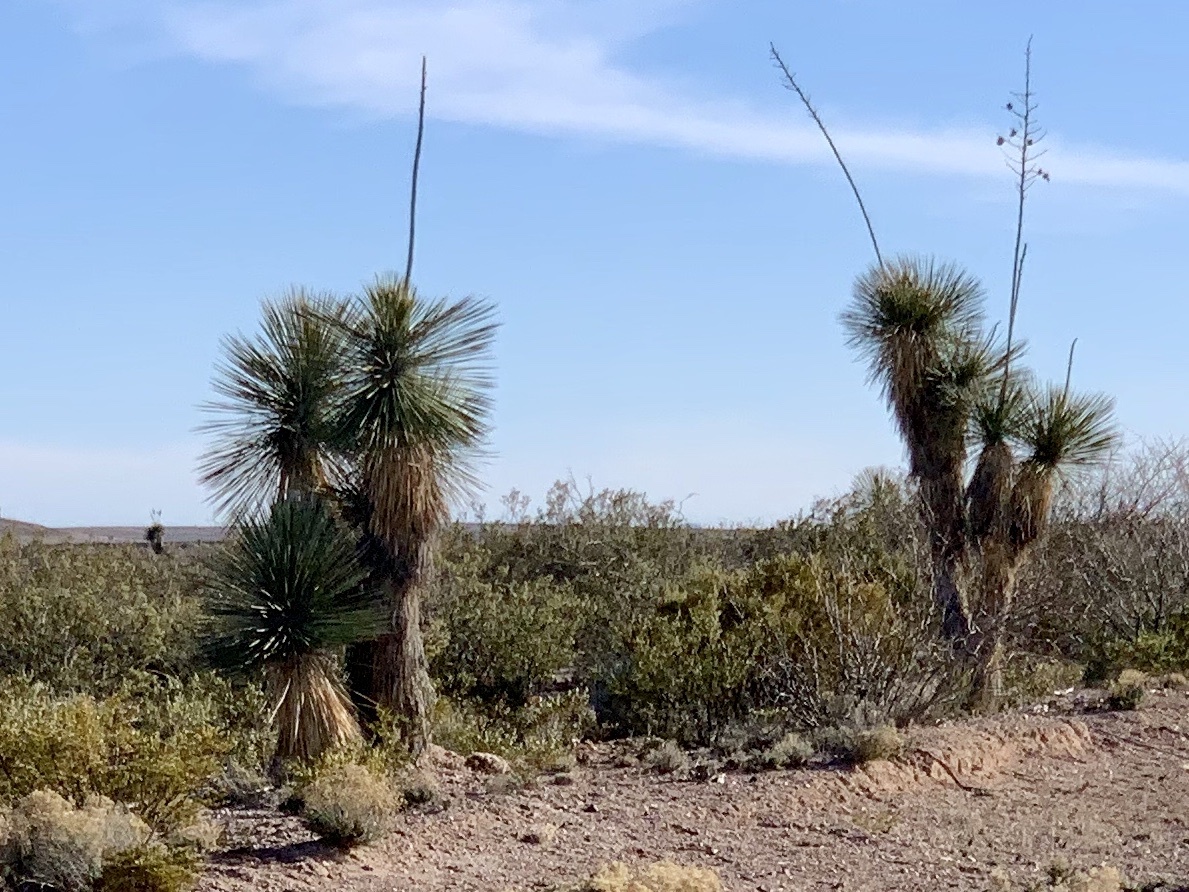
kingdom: Plantae
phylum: Tracheophyta
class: Liliopsida
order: Asparagales
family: Asparagaceae
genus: Yucca
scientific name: Yucca elata
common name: Palmella
